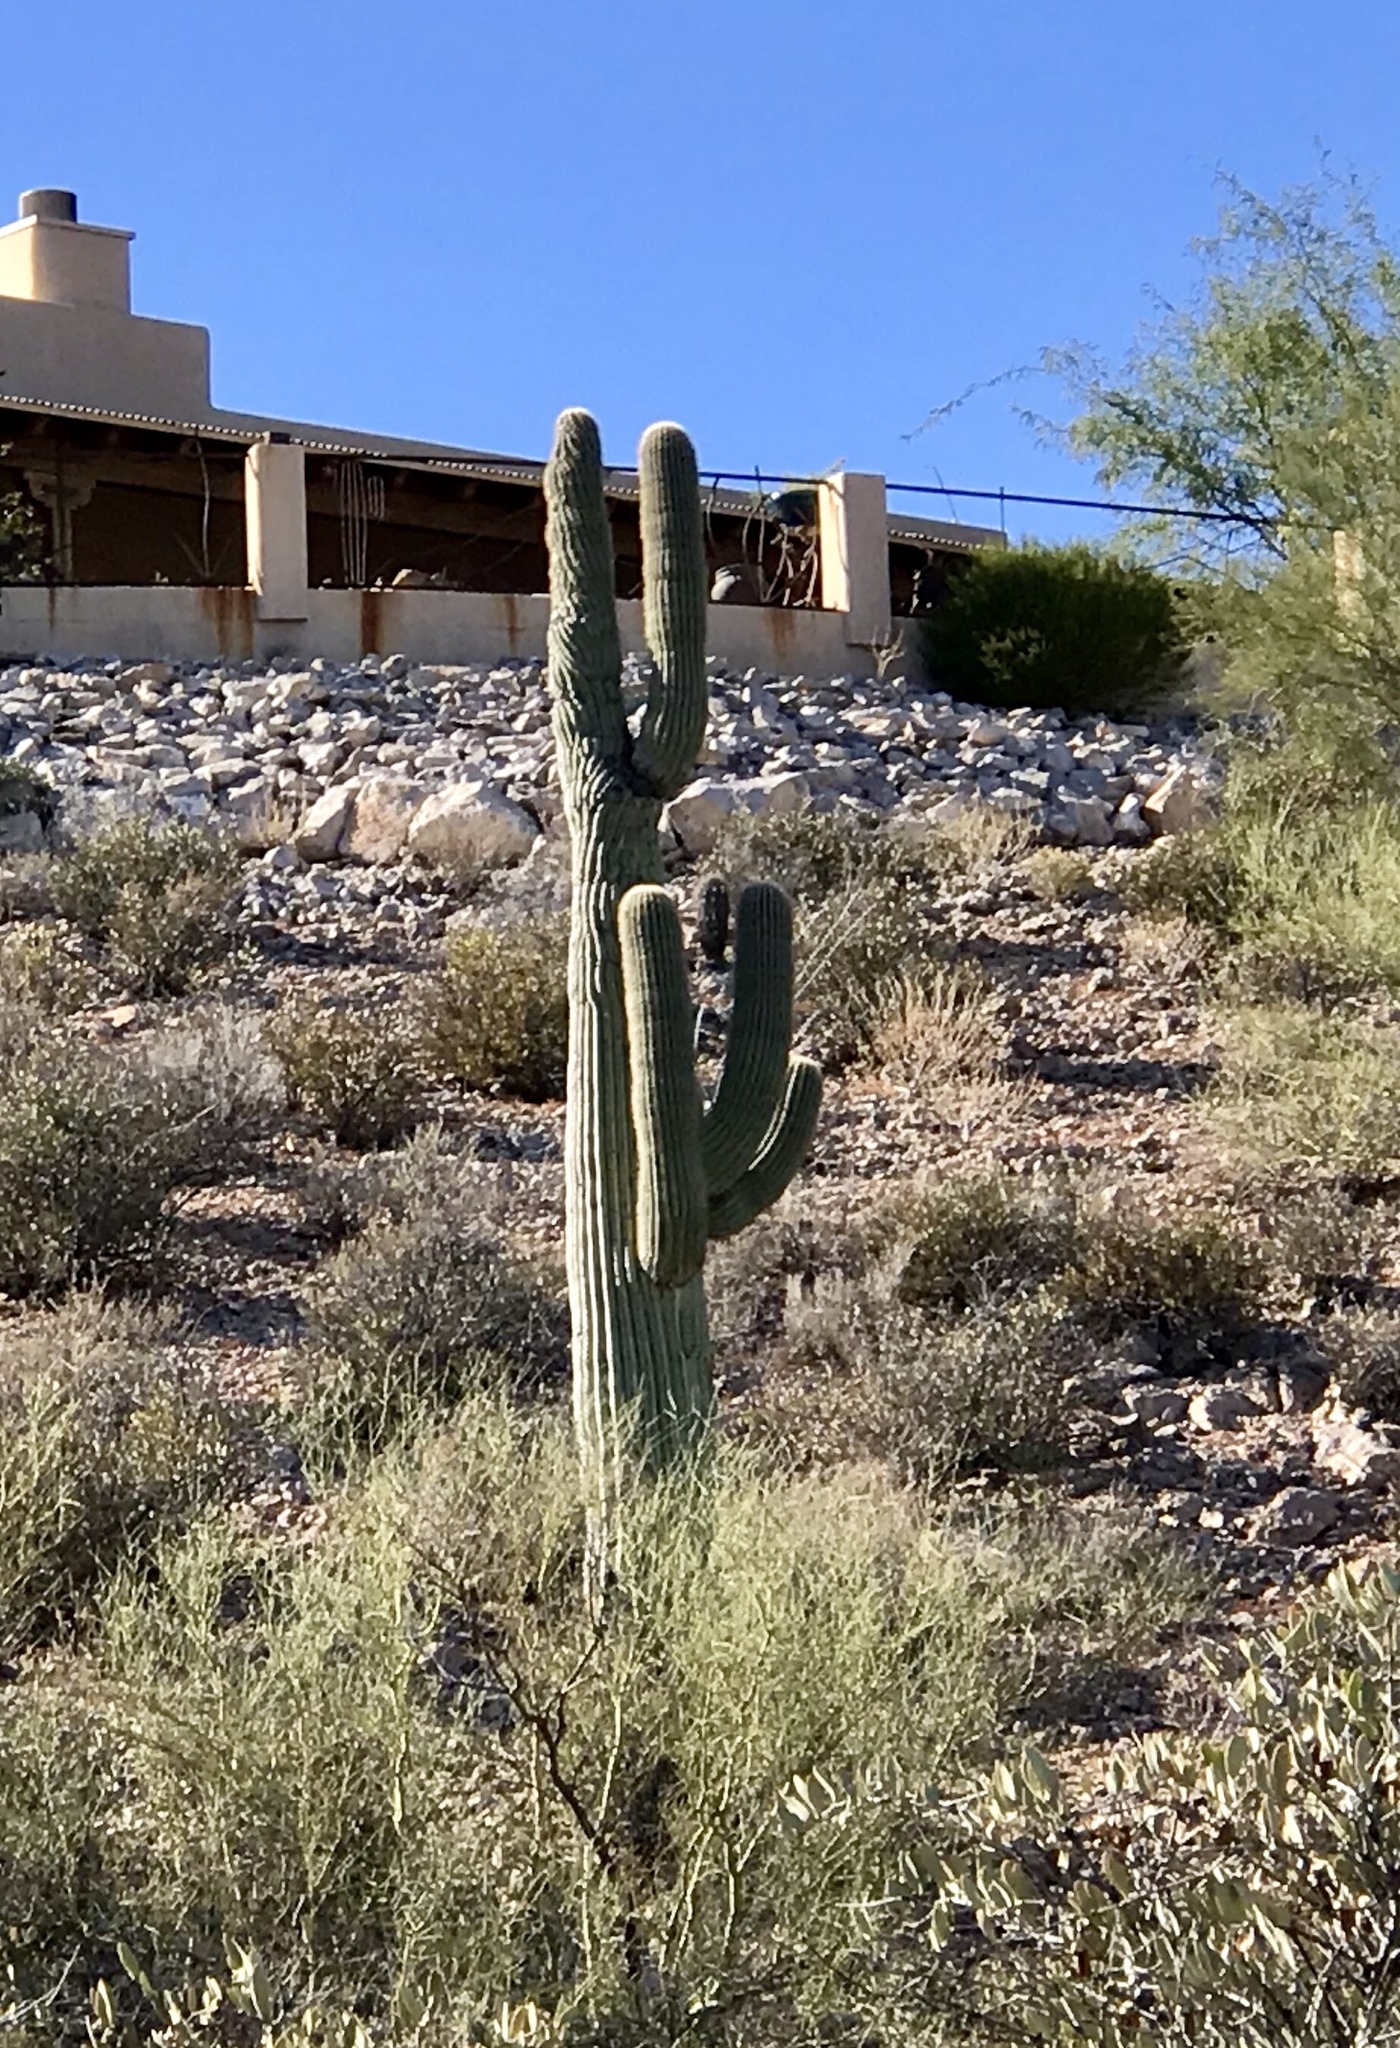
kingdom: Plantae
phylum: Tracheophyta
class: Magnoliopsida
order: Caryophyllales
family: Cactaceae
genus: Carnegiea
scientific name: Carnegiea gigantea
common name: Saguaro
